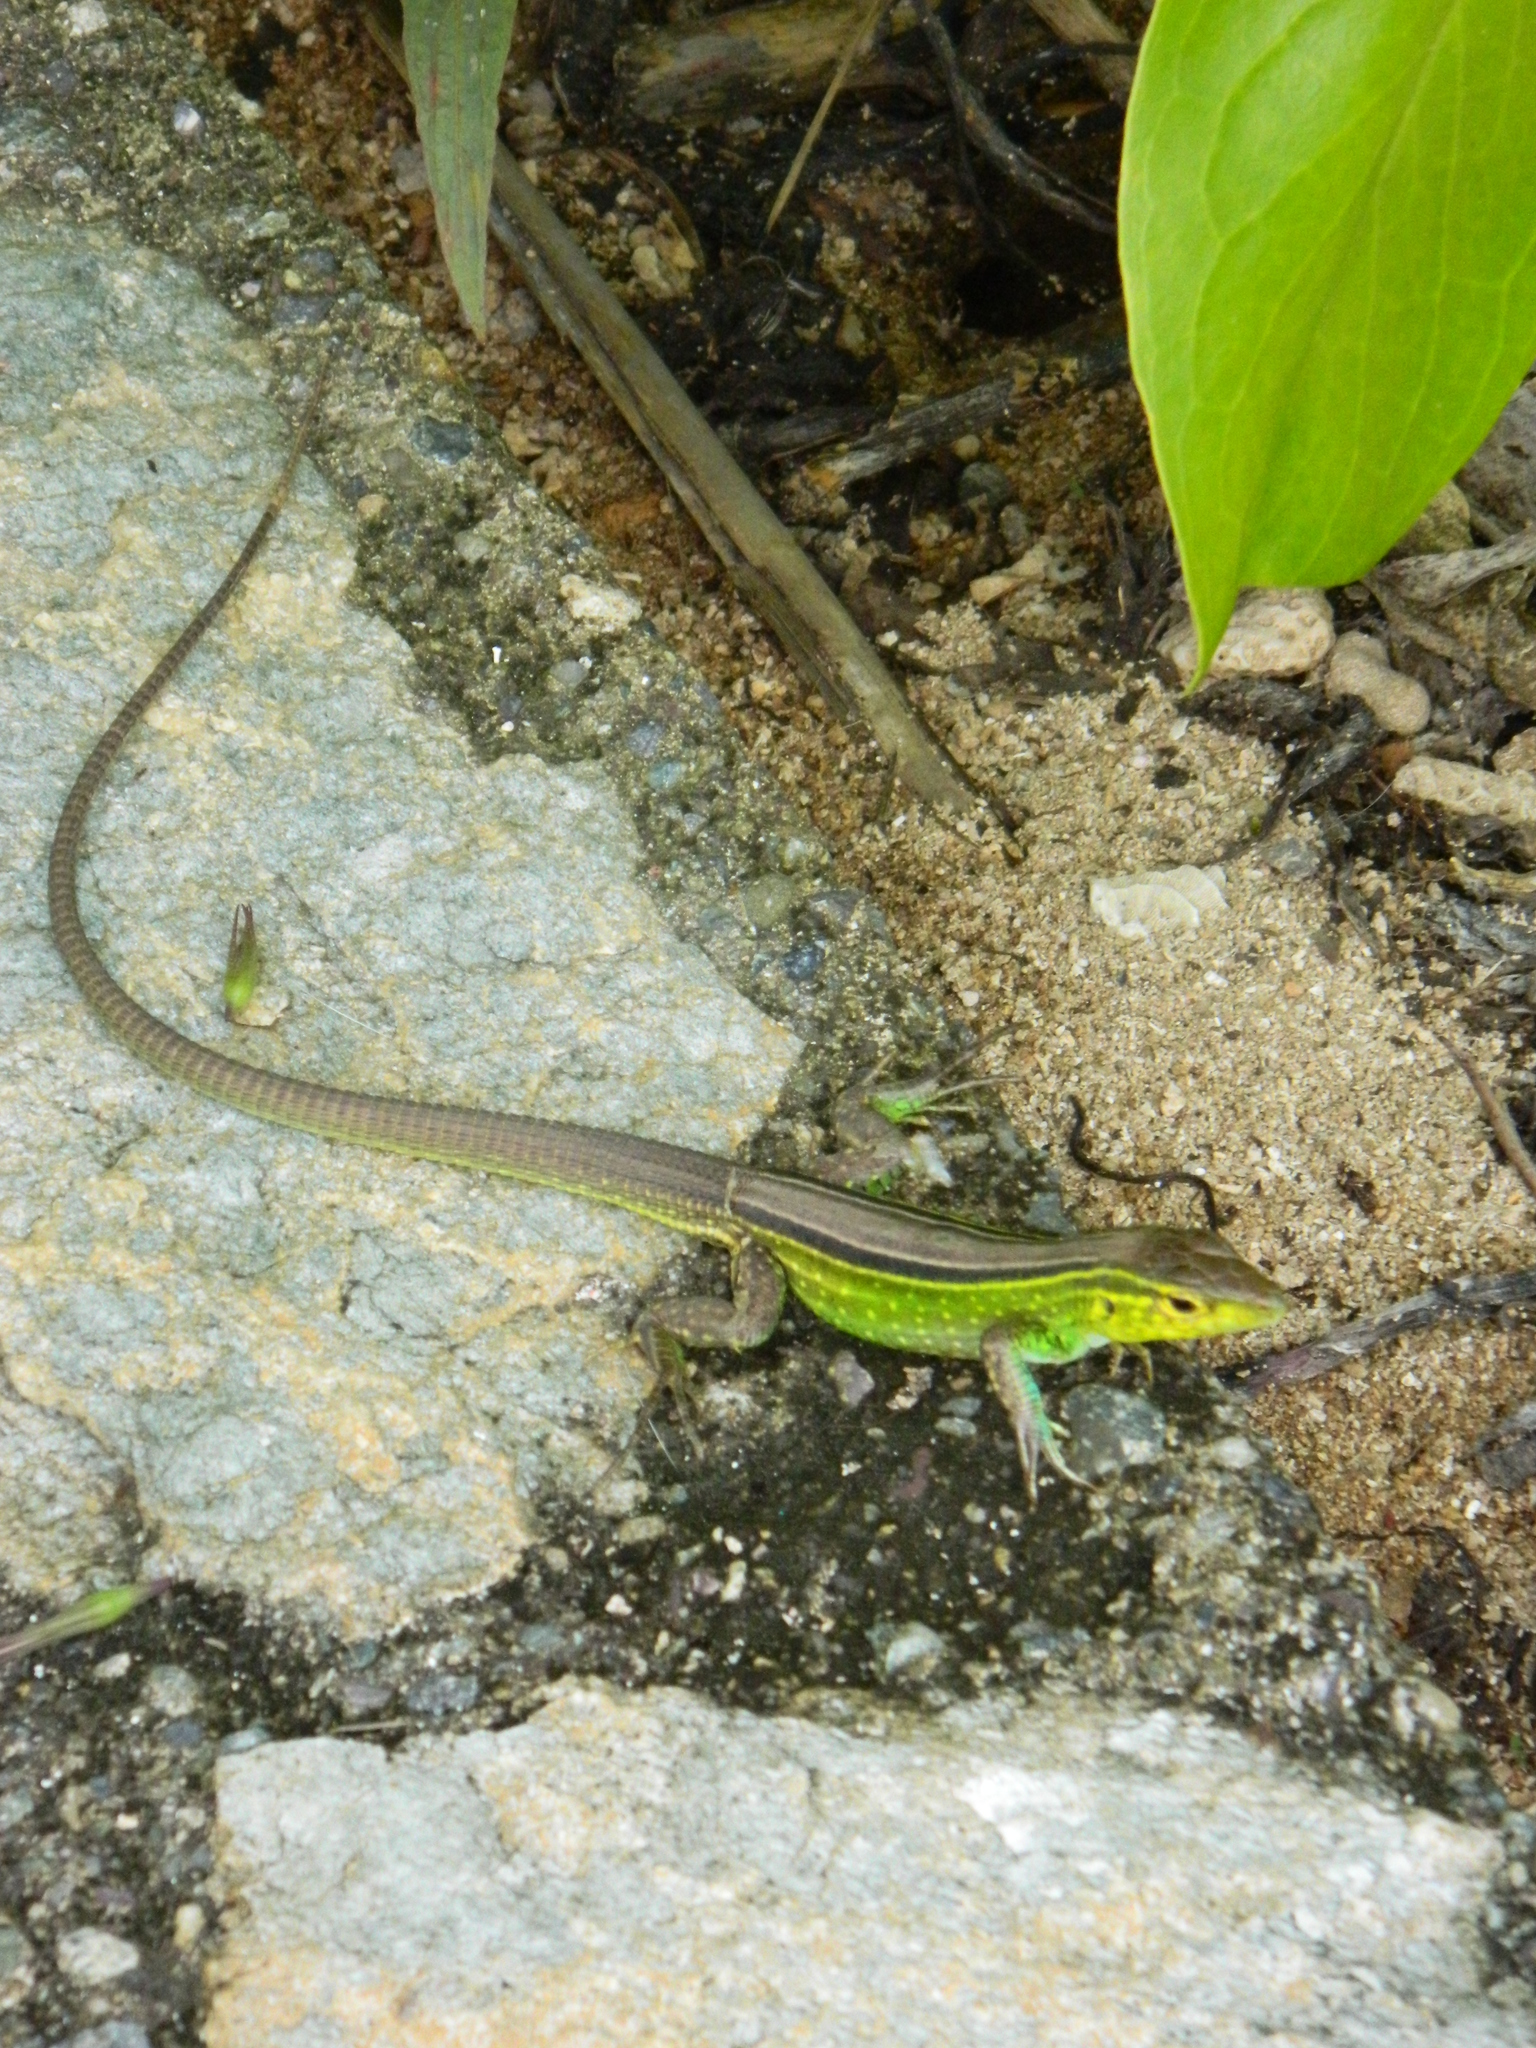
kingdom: Animalia
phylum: Chordata
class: Squamata
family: Teiidae
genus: Cnemidophorus
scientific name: Cnemidophorus ruatanus
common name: Central american whiptail
